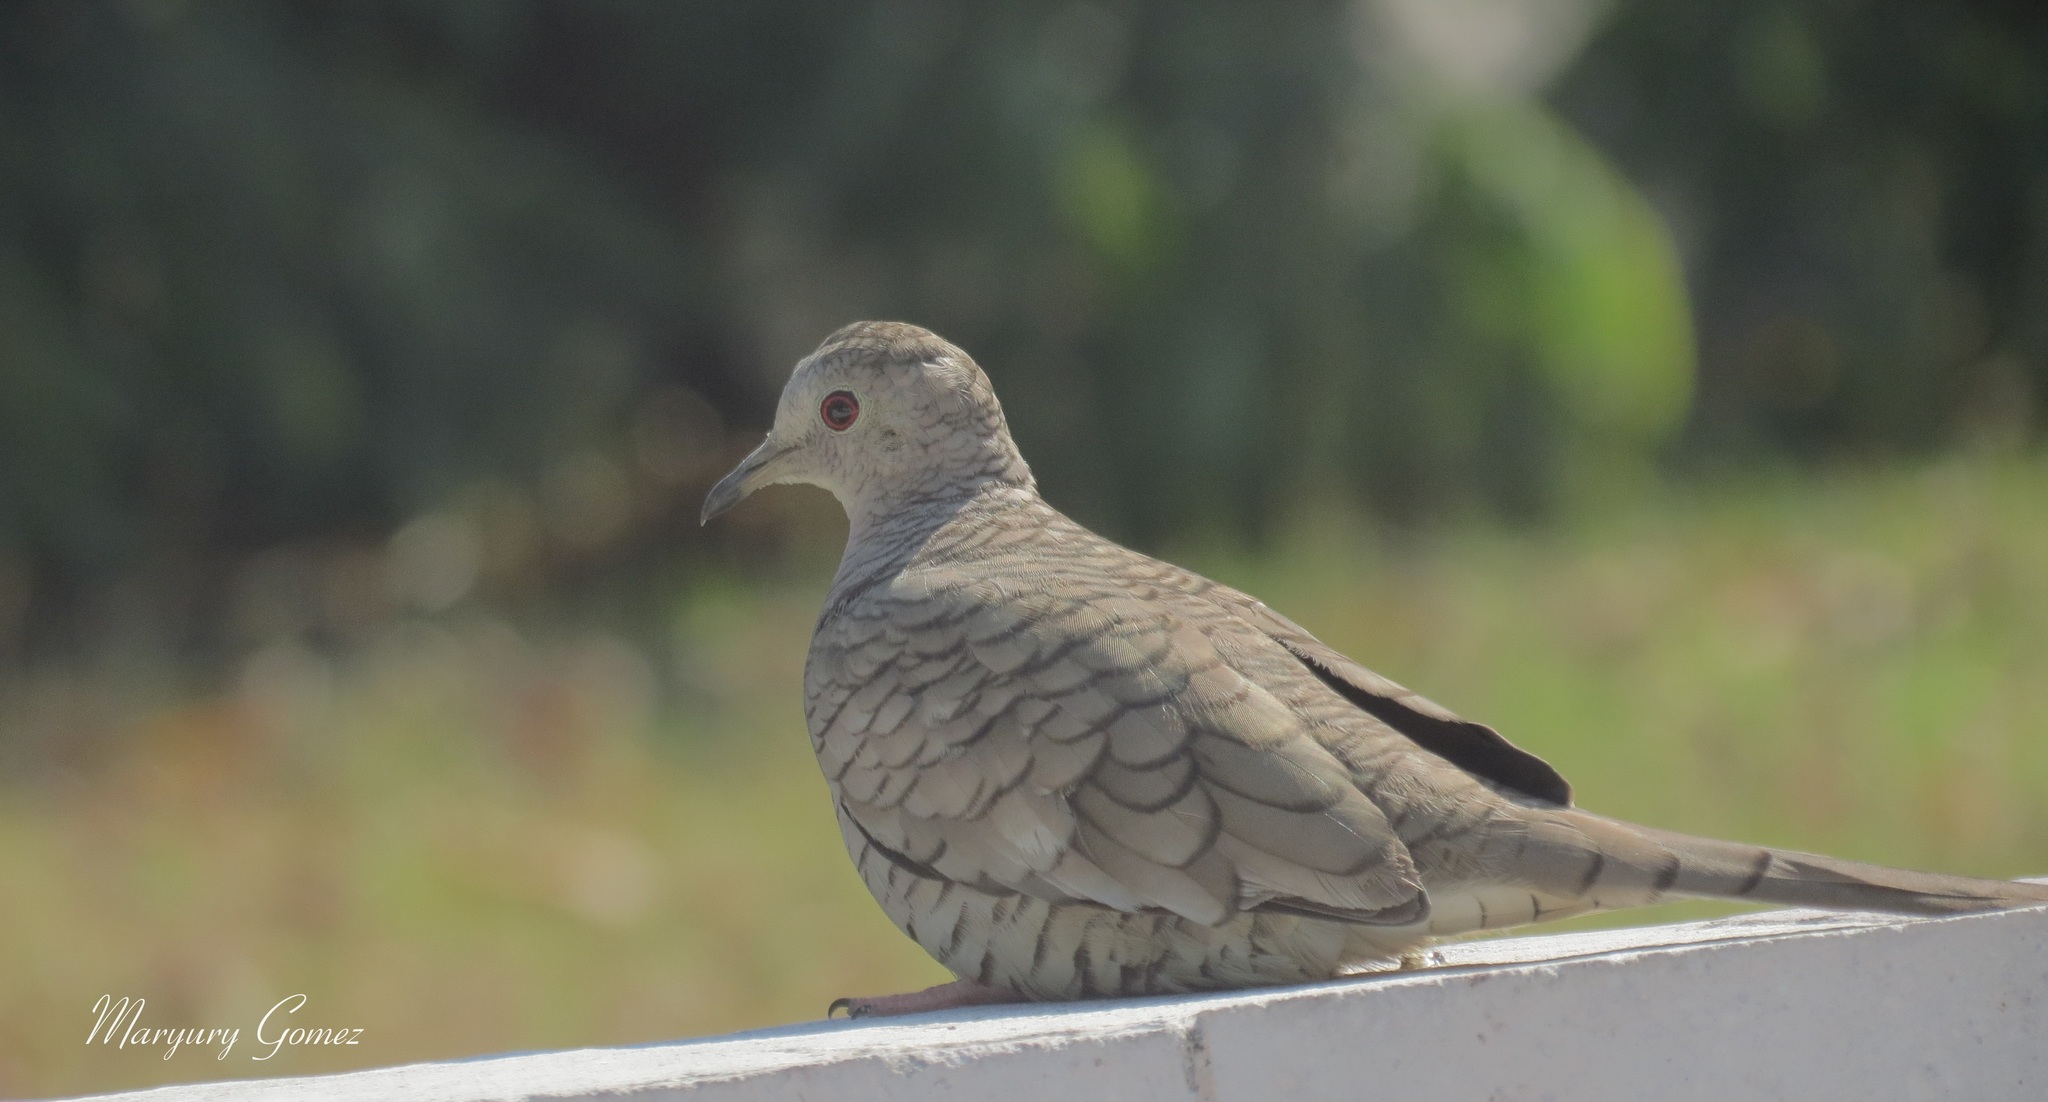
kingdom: Animalia
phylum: Chordata
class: Aves
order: Columbiformes
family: Columbidae
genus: Columbina
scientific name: Columbina inca
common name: Inca dove
